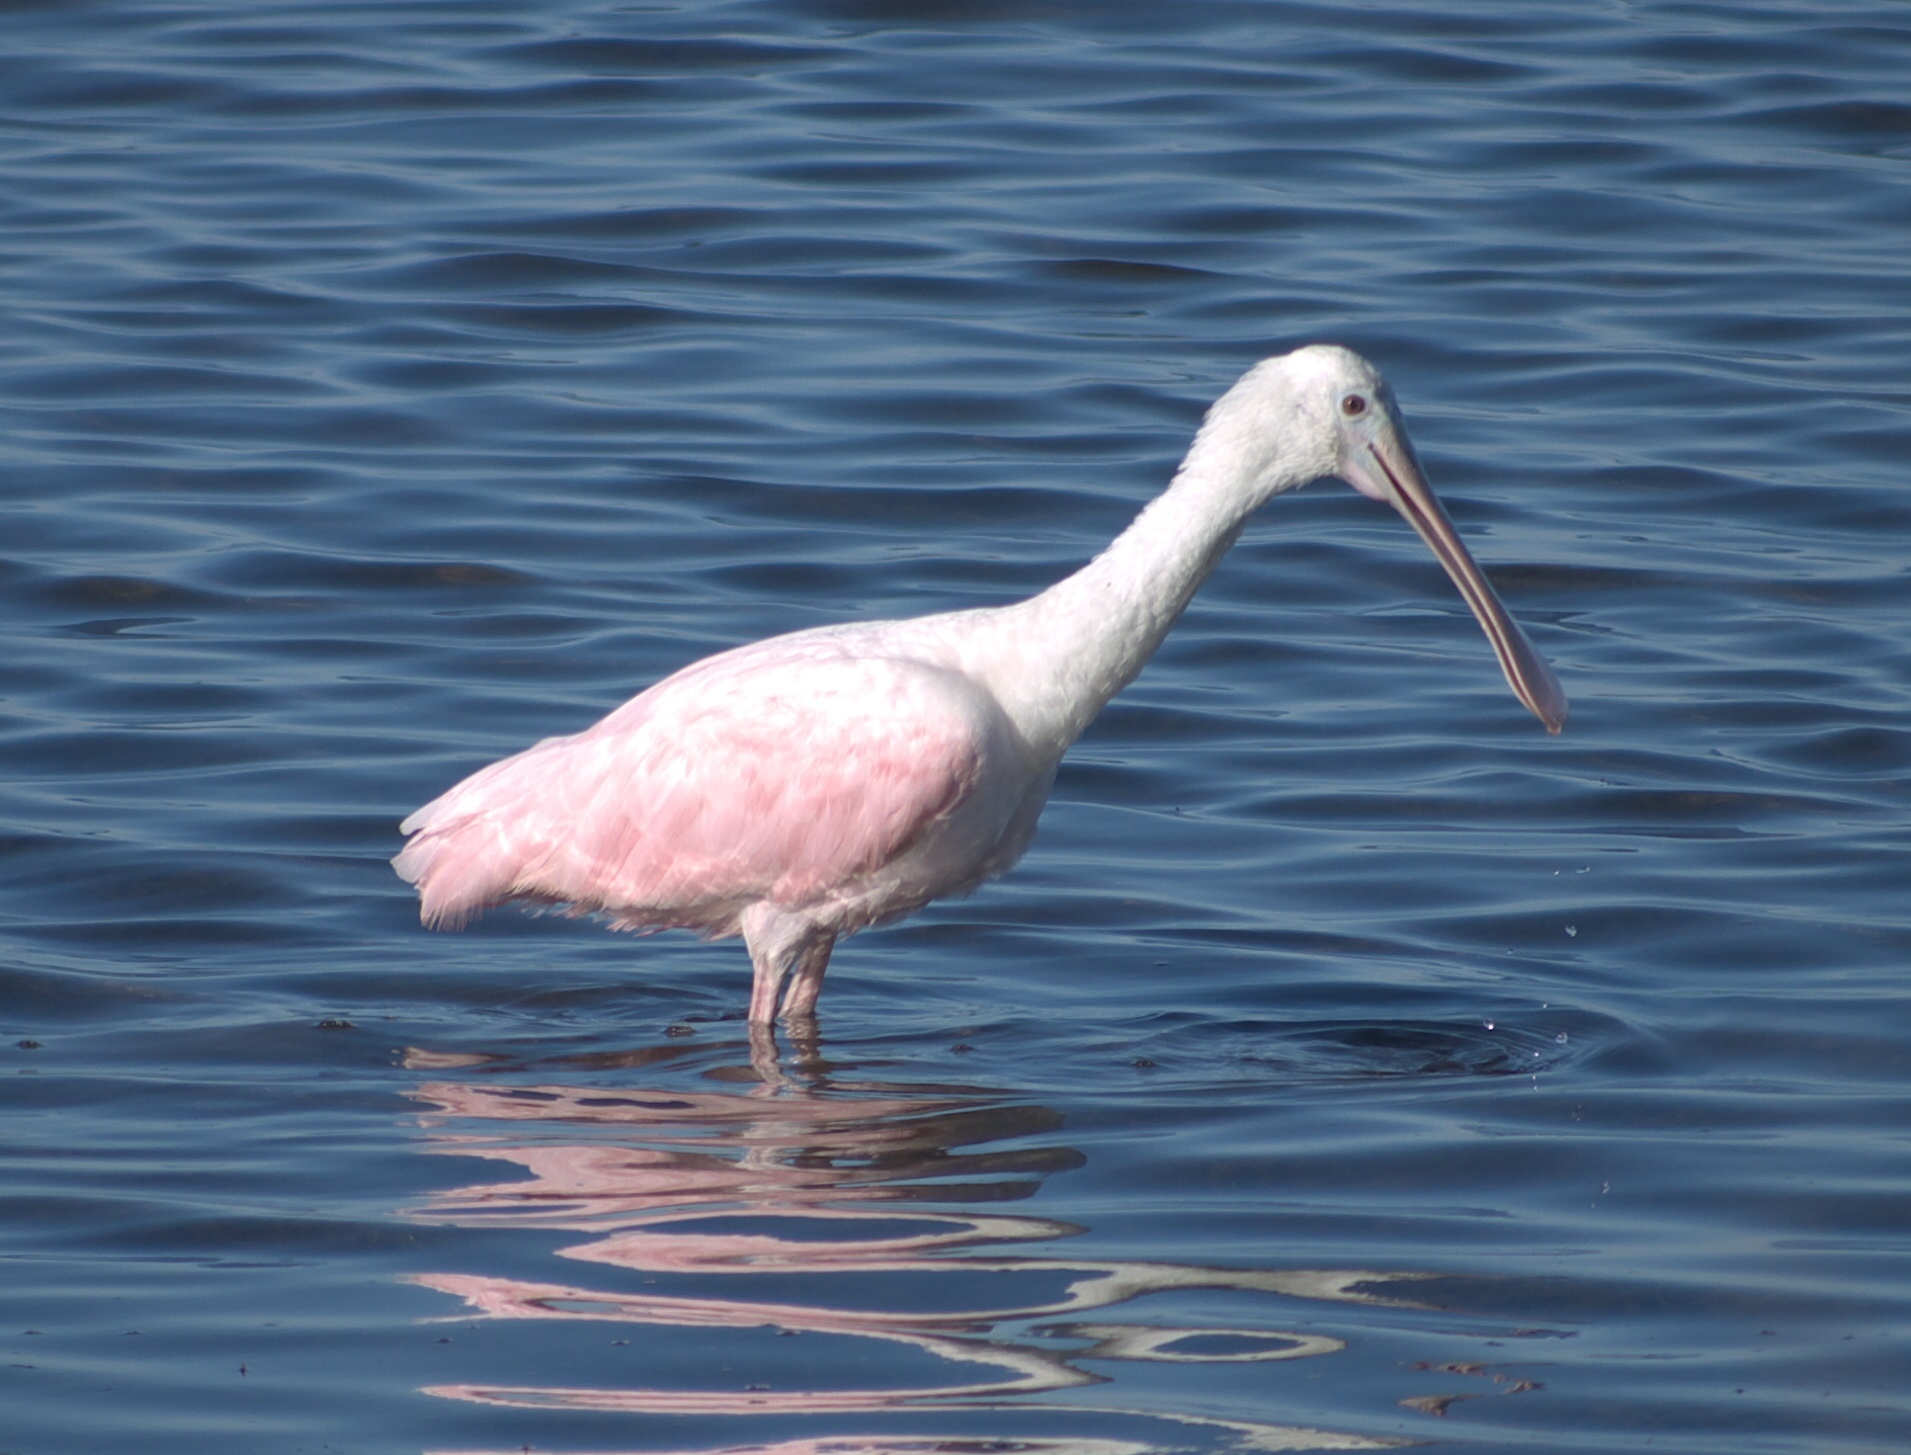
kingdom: Animalia
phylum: Chordata
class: Aves
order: Pelecaniformes
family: Threskiornithidae
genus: Platalea
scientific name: Platalea ajaja
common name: Roseate spoonbill
